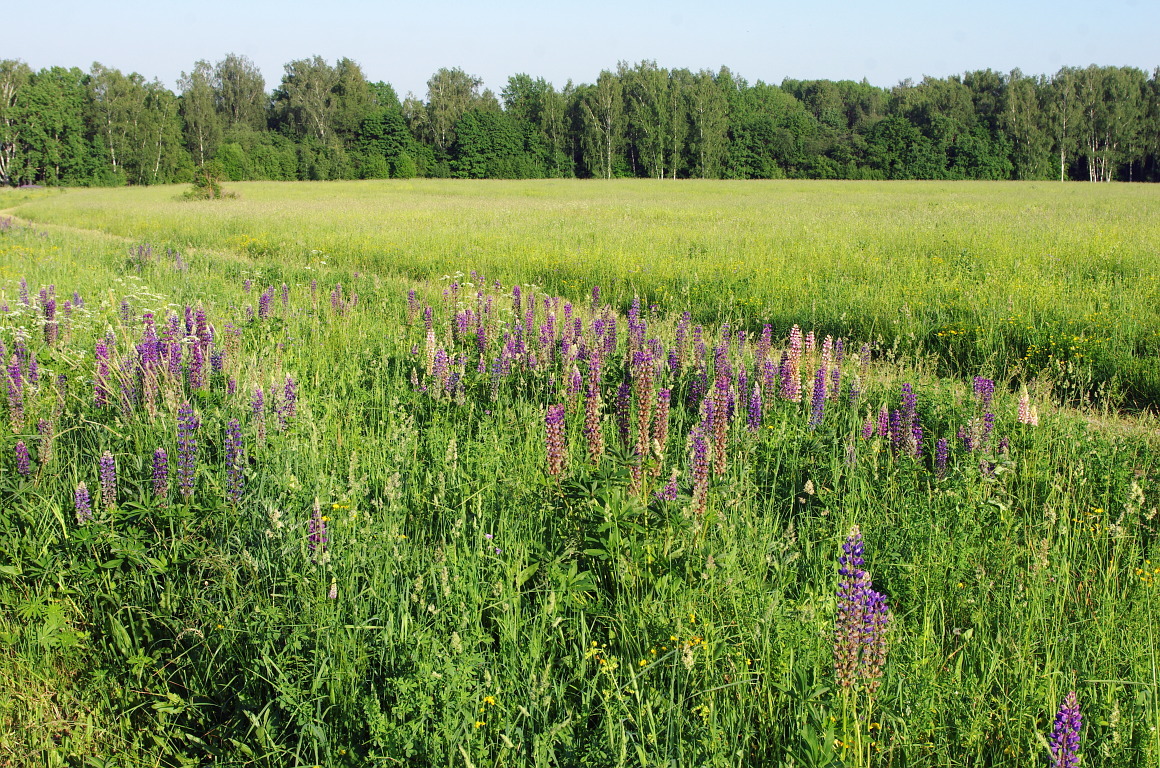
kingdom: Plantae
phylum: Tracheophyta
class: Magnoliopsida
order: Fabales
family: Fabaceae
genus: Lupinus
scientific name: Lupinus polyphyllus
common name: Garden lupin
